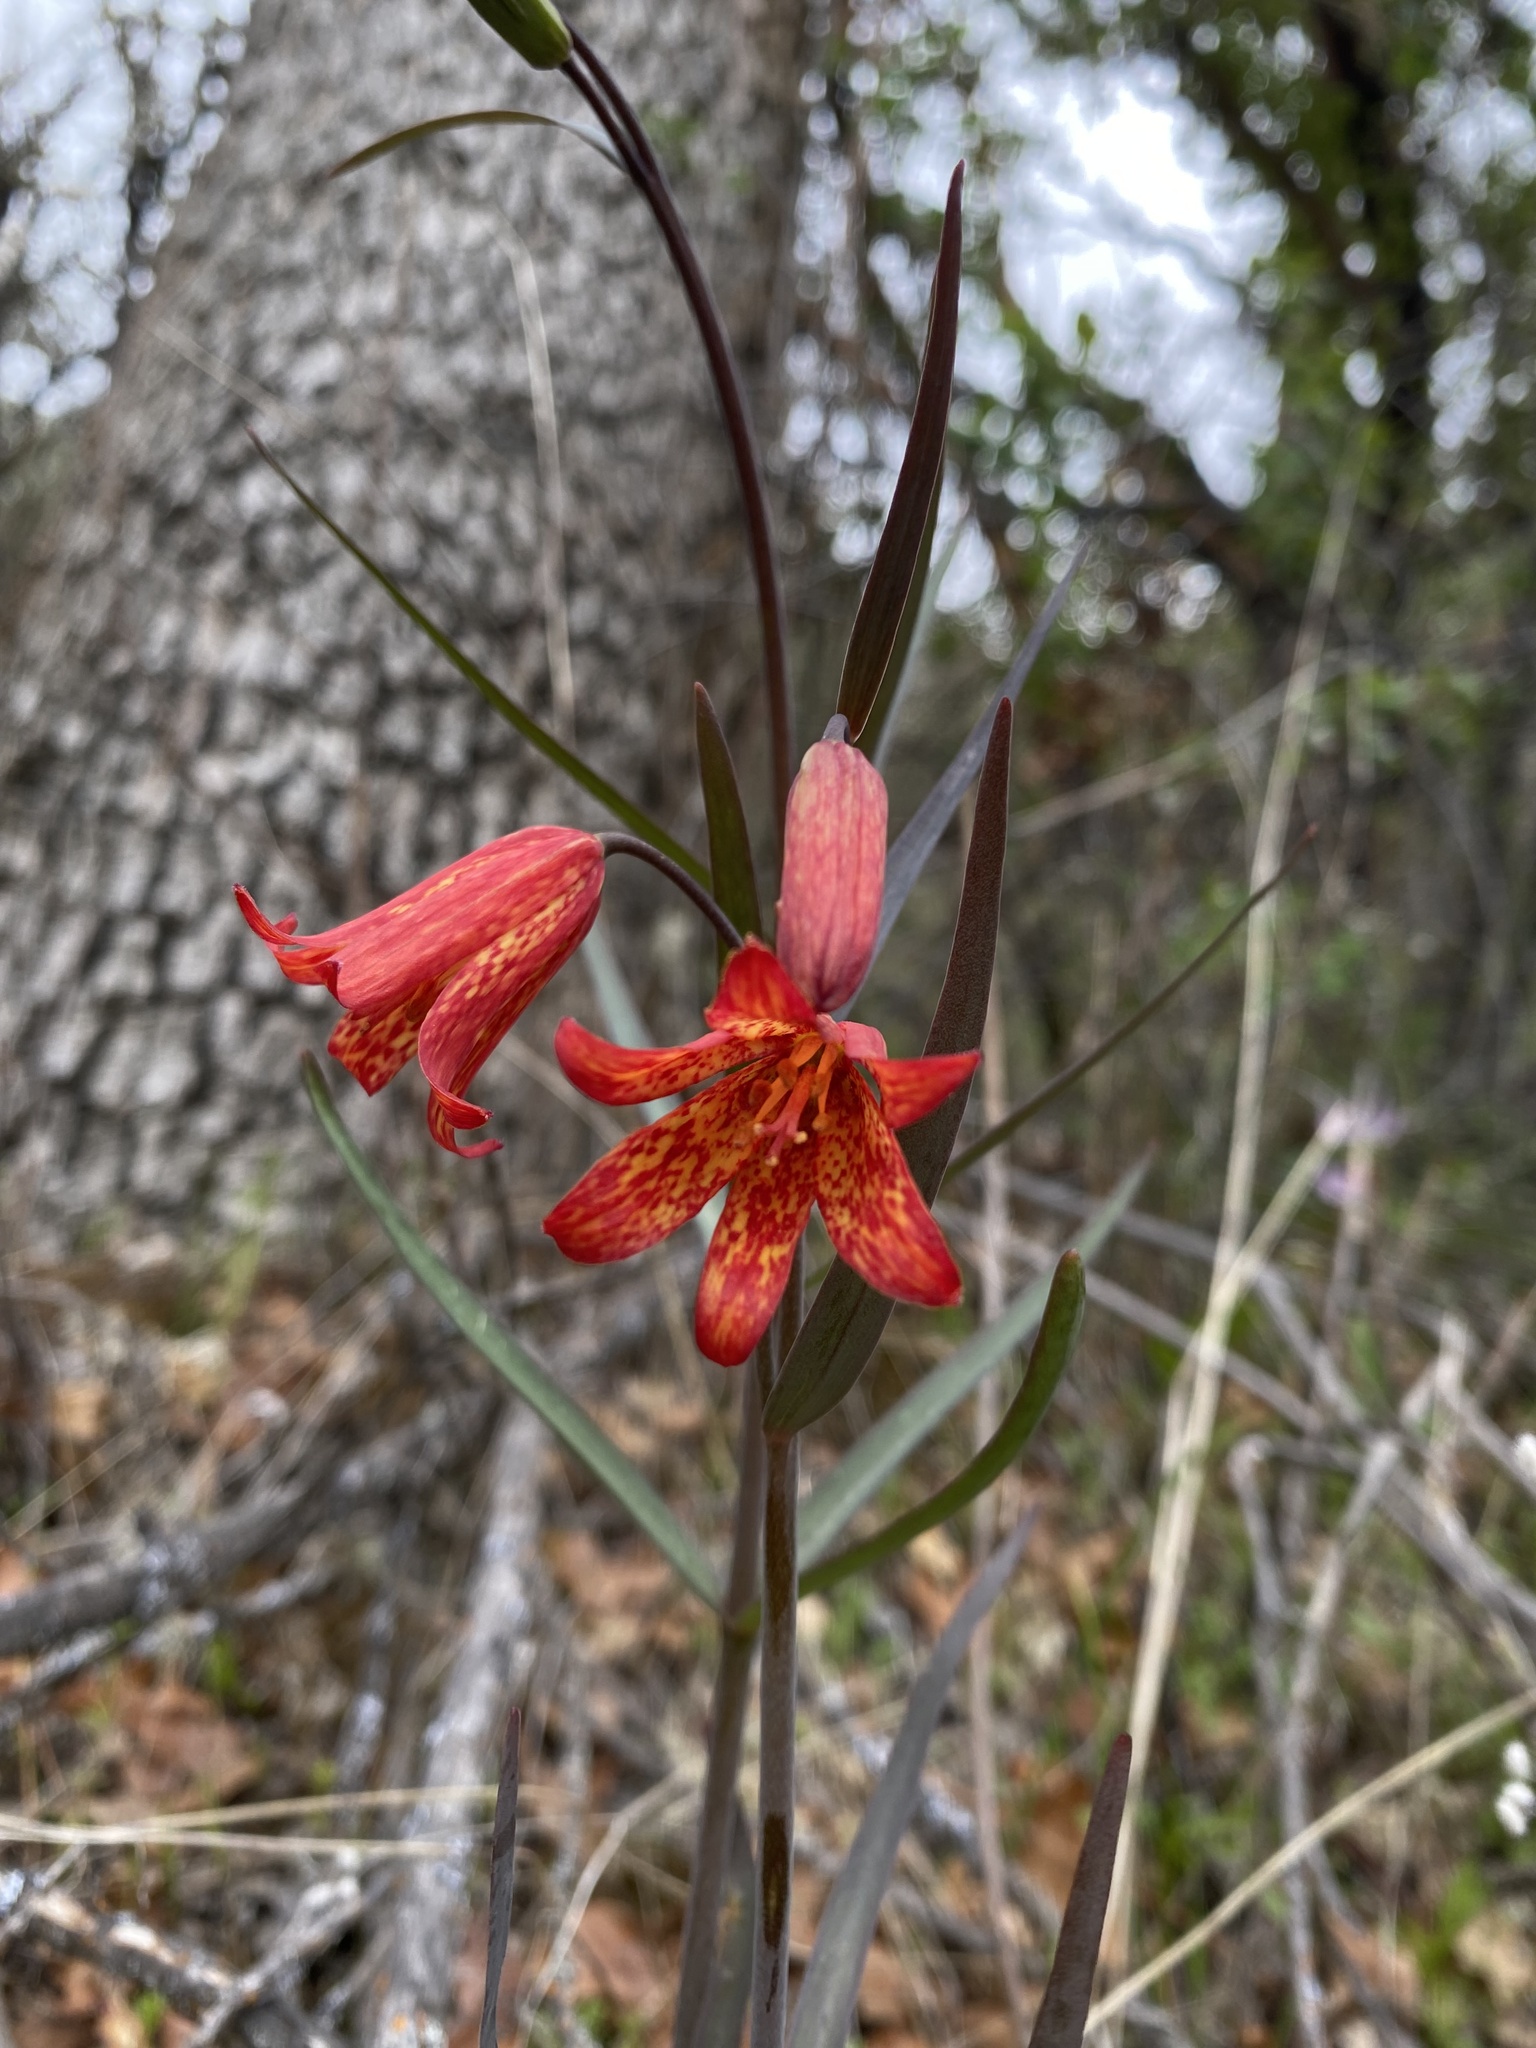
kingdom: Plantae
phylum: Tracheophyta
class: Liliopsida
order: Liliales
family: Liliaceae
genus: Fritillaria
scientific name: Fritillaria recurva
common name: Scarlet fritillary
